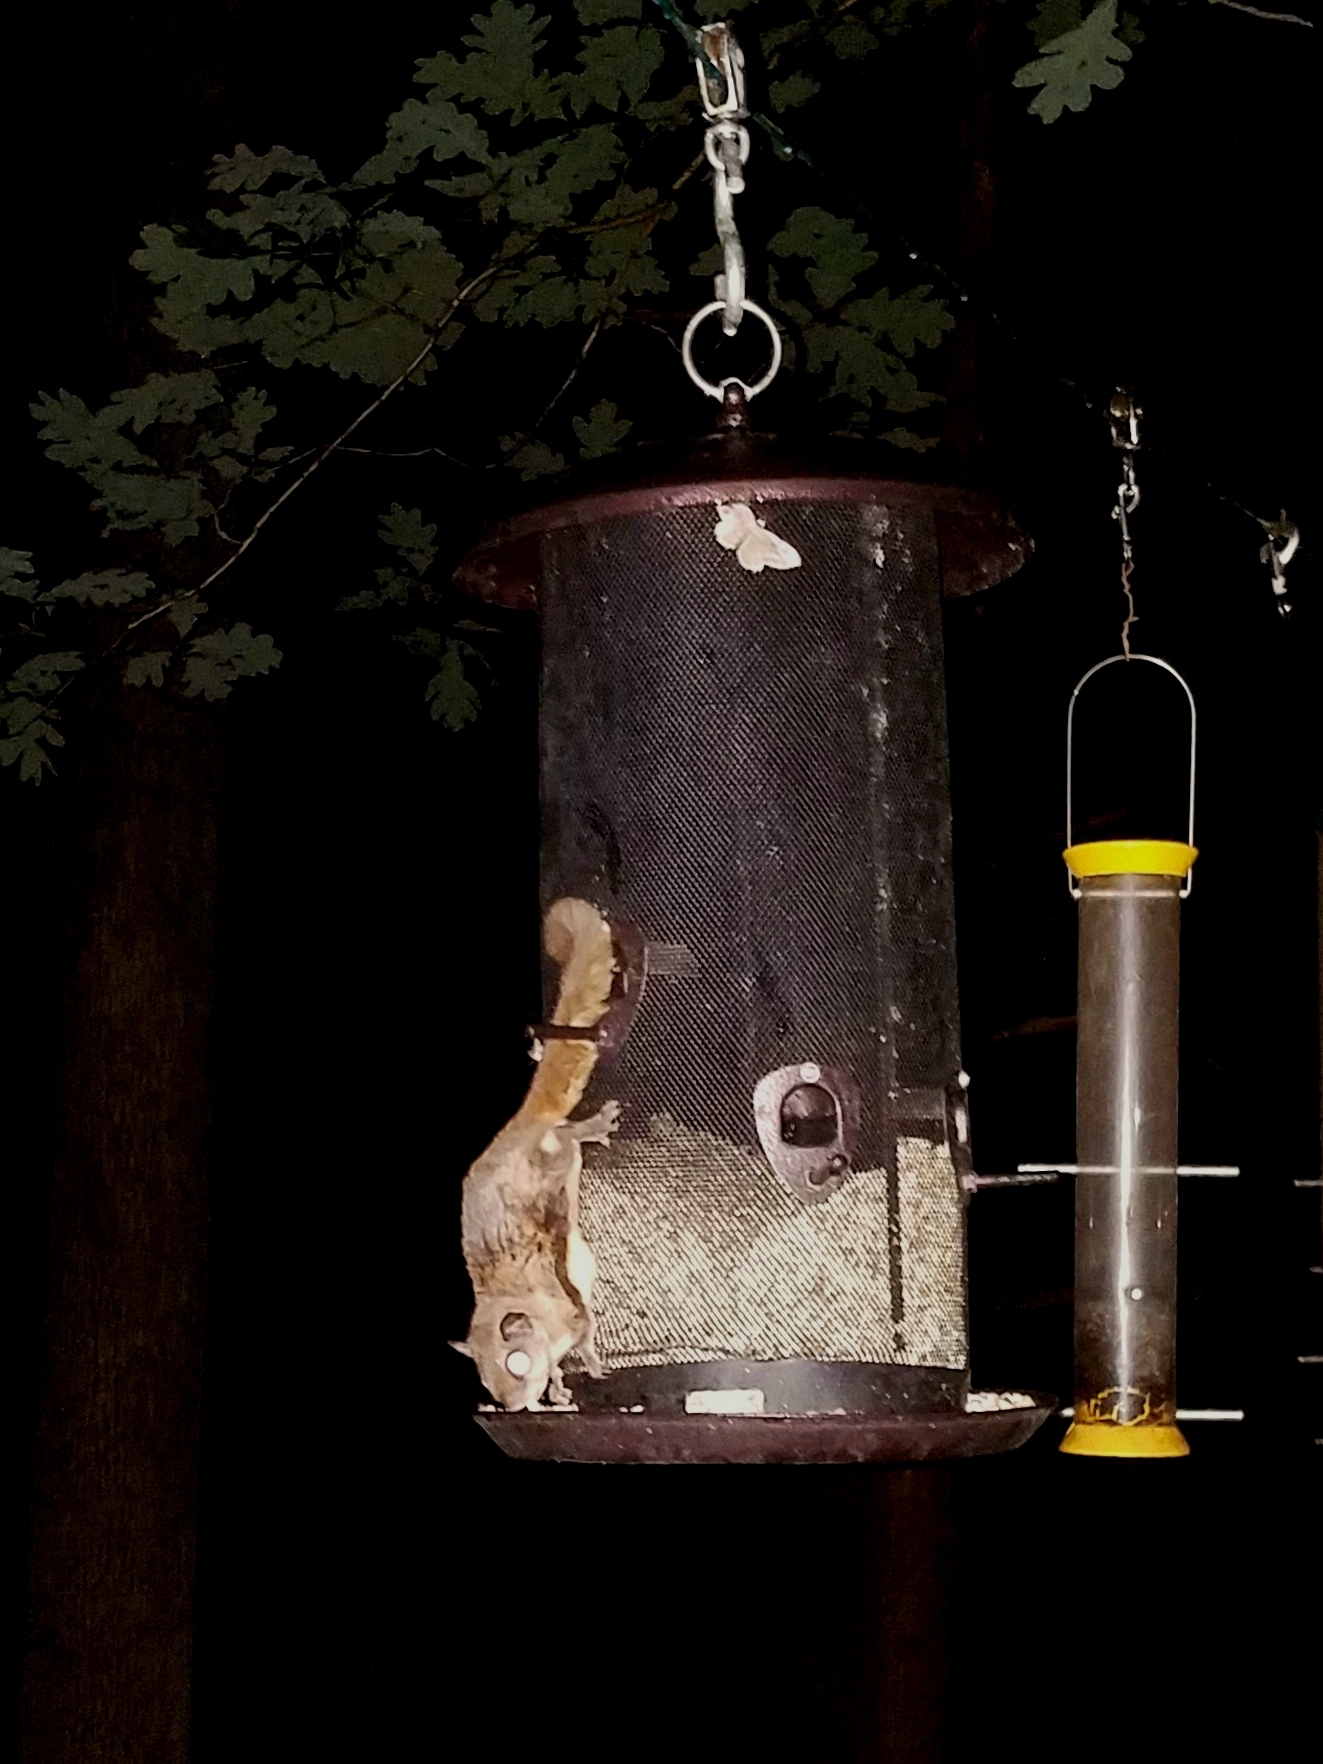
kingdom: Animalia
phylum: Chordata
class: Mammalia
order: Rodentia
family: Sciuridae
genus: Glaucomys
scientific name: Glaucomys volans
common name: Southern flying squirrel
